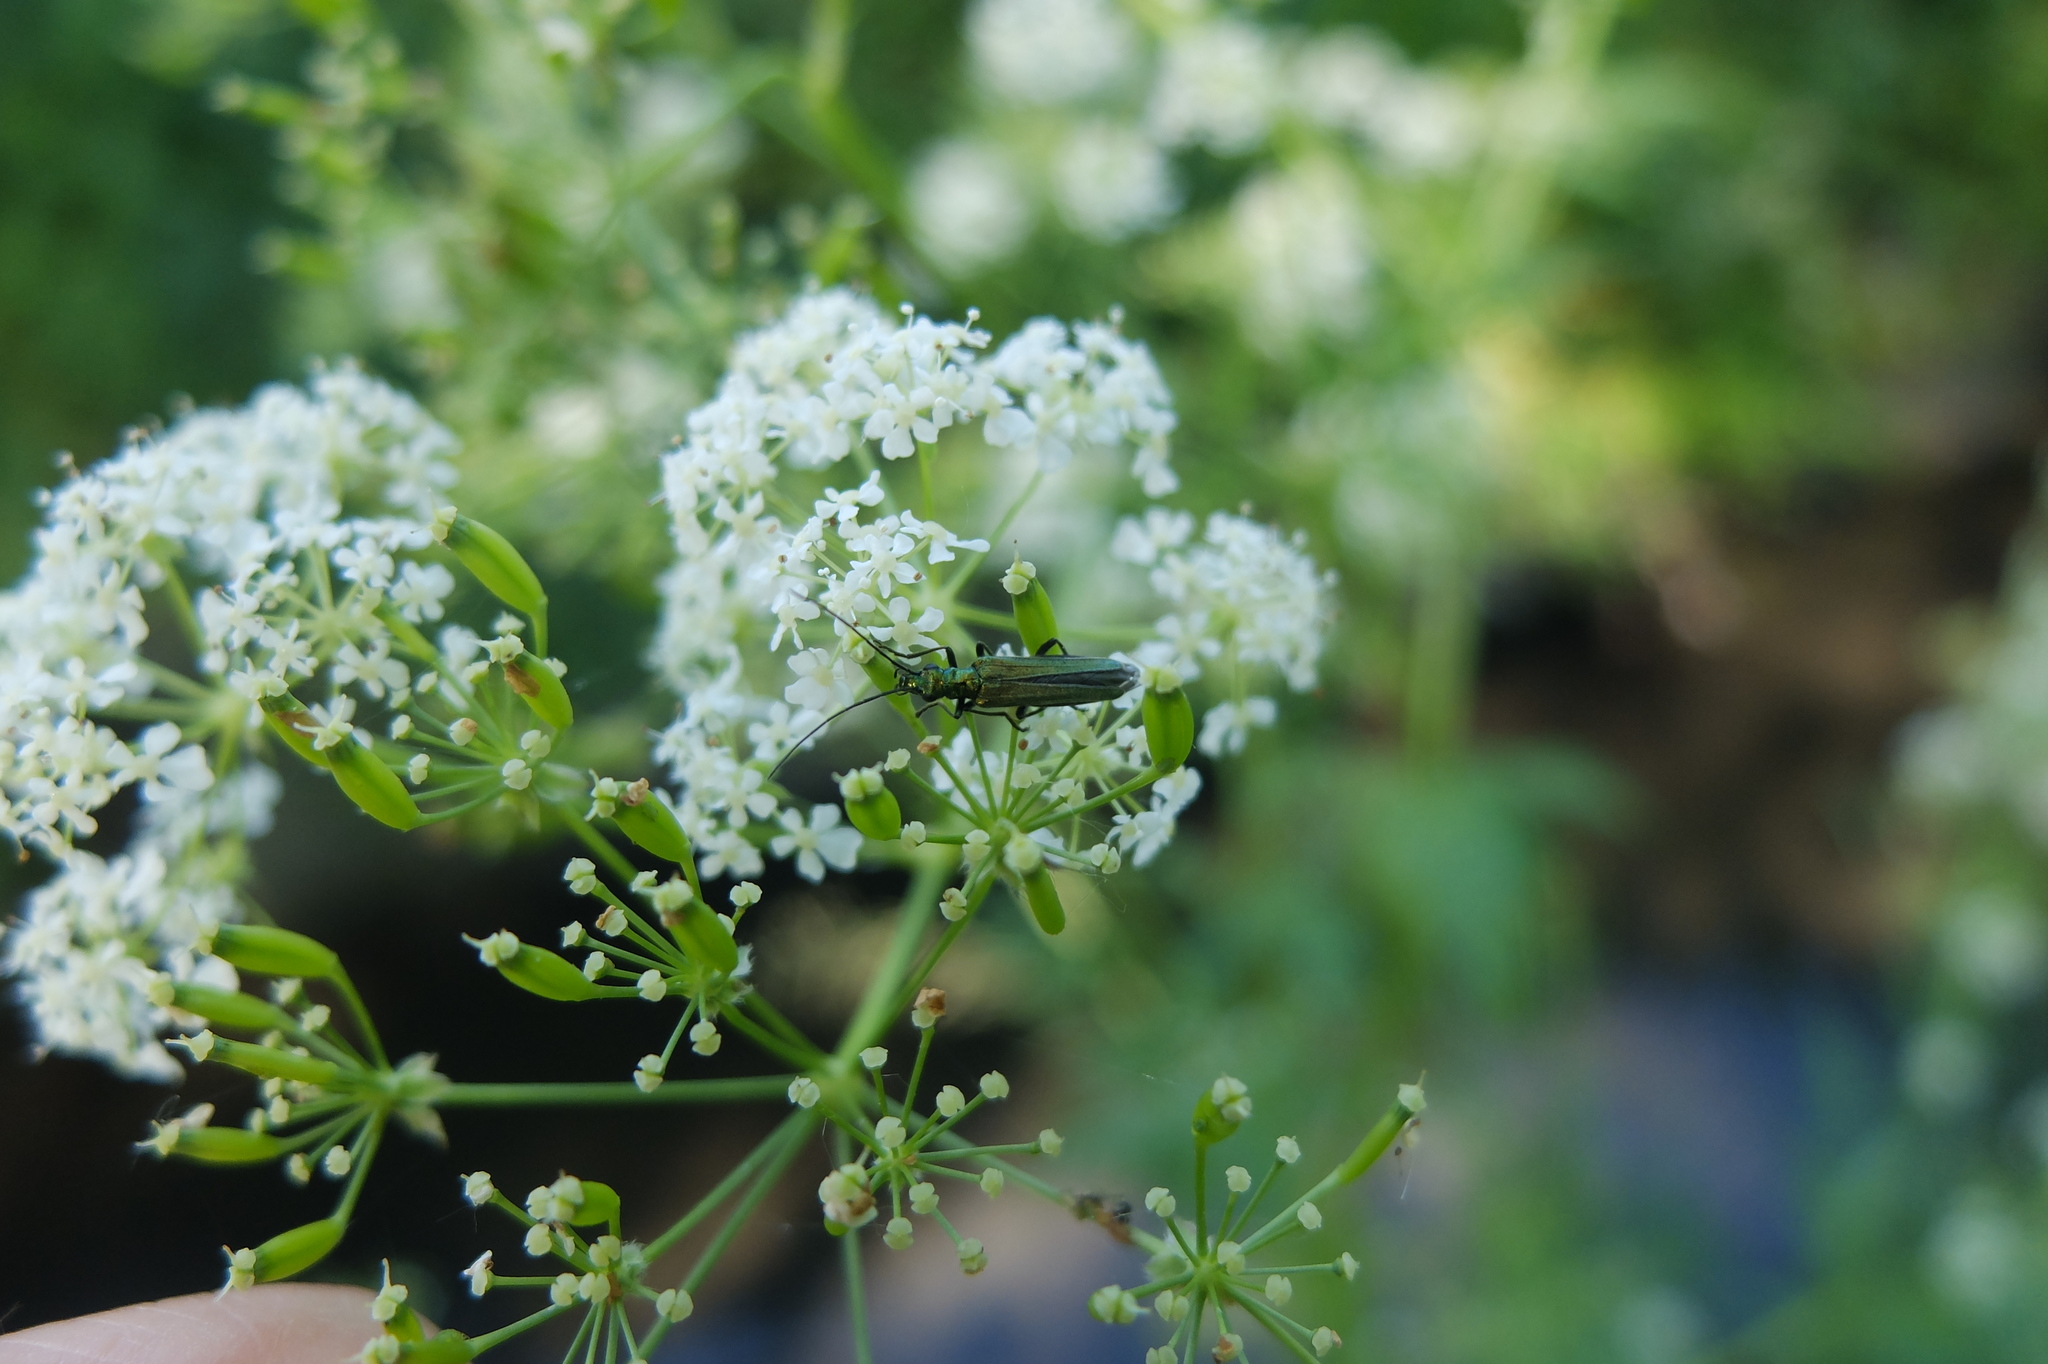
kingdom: Animalia
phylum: Arthropoda
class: Insecta
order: Coleoptera
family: Oedemeridae
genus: Oedemera
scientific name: Oedemera nobilis
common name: Swollen-thighed beetle
